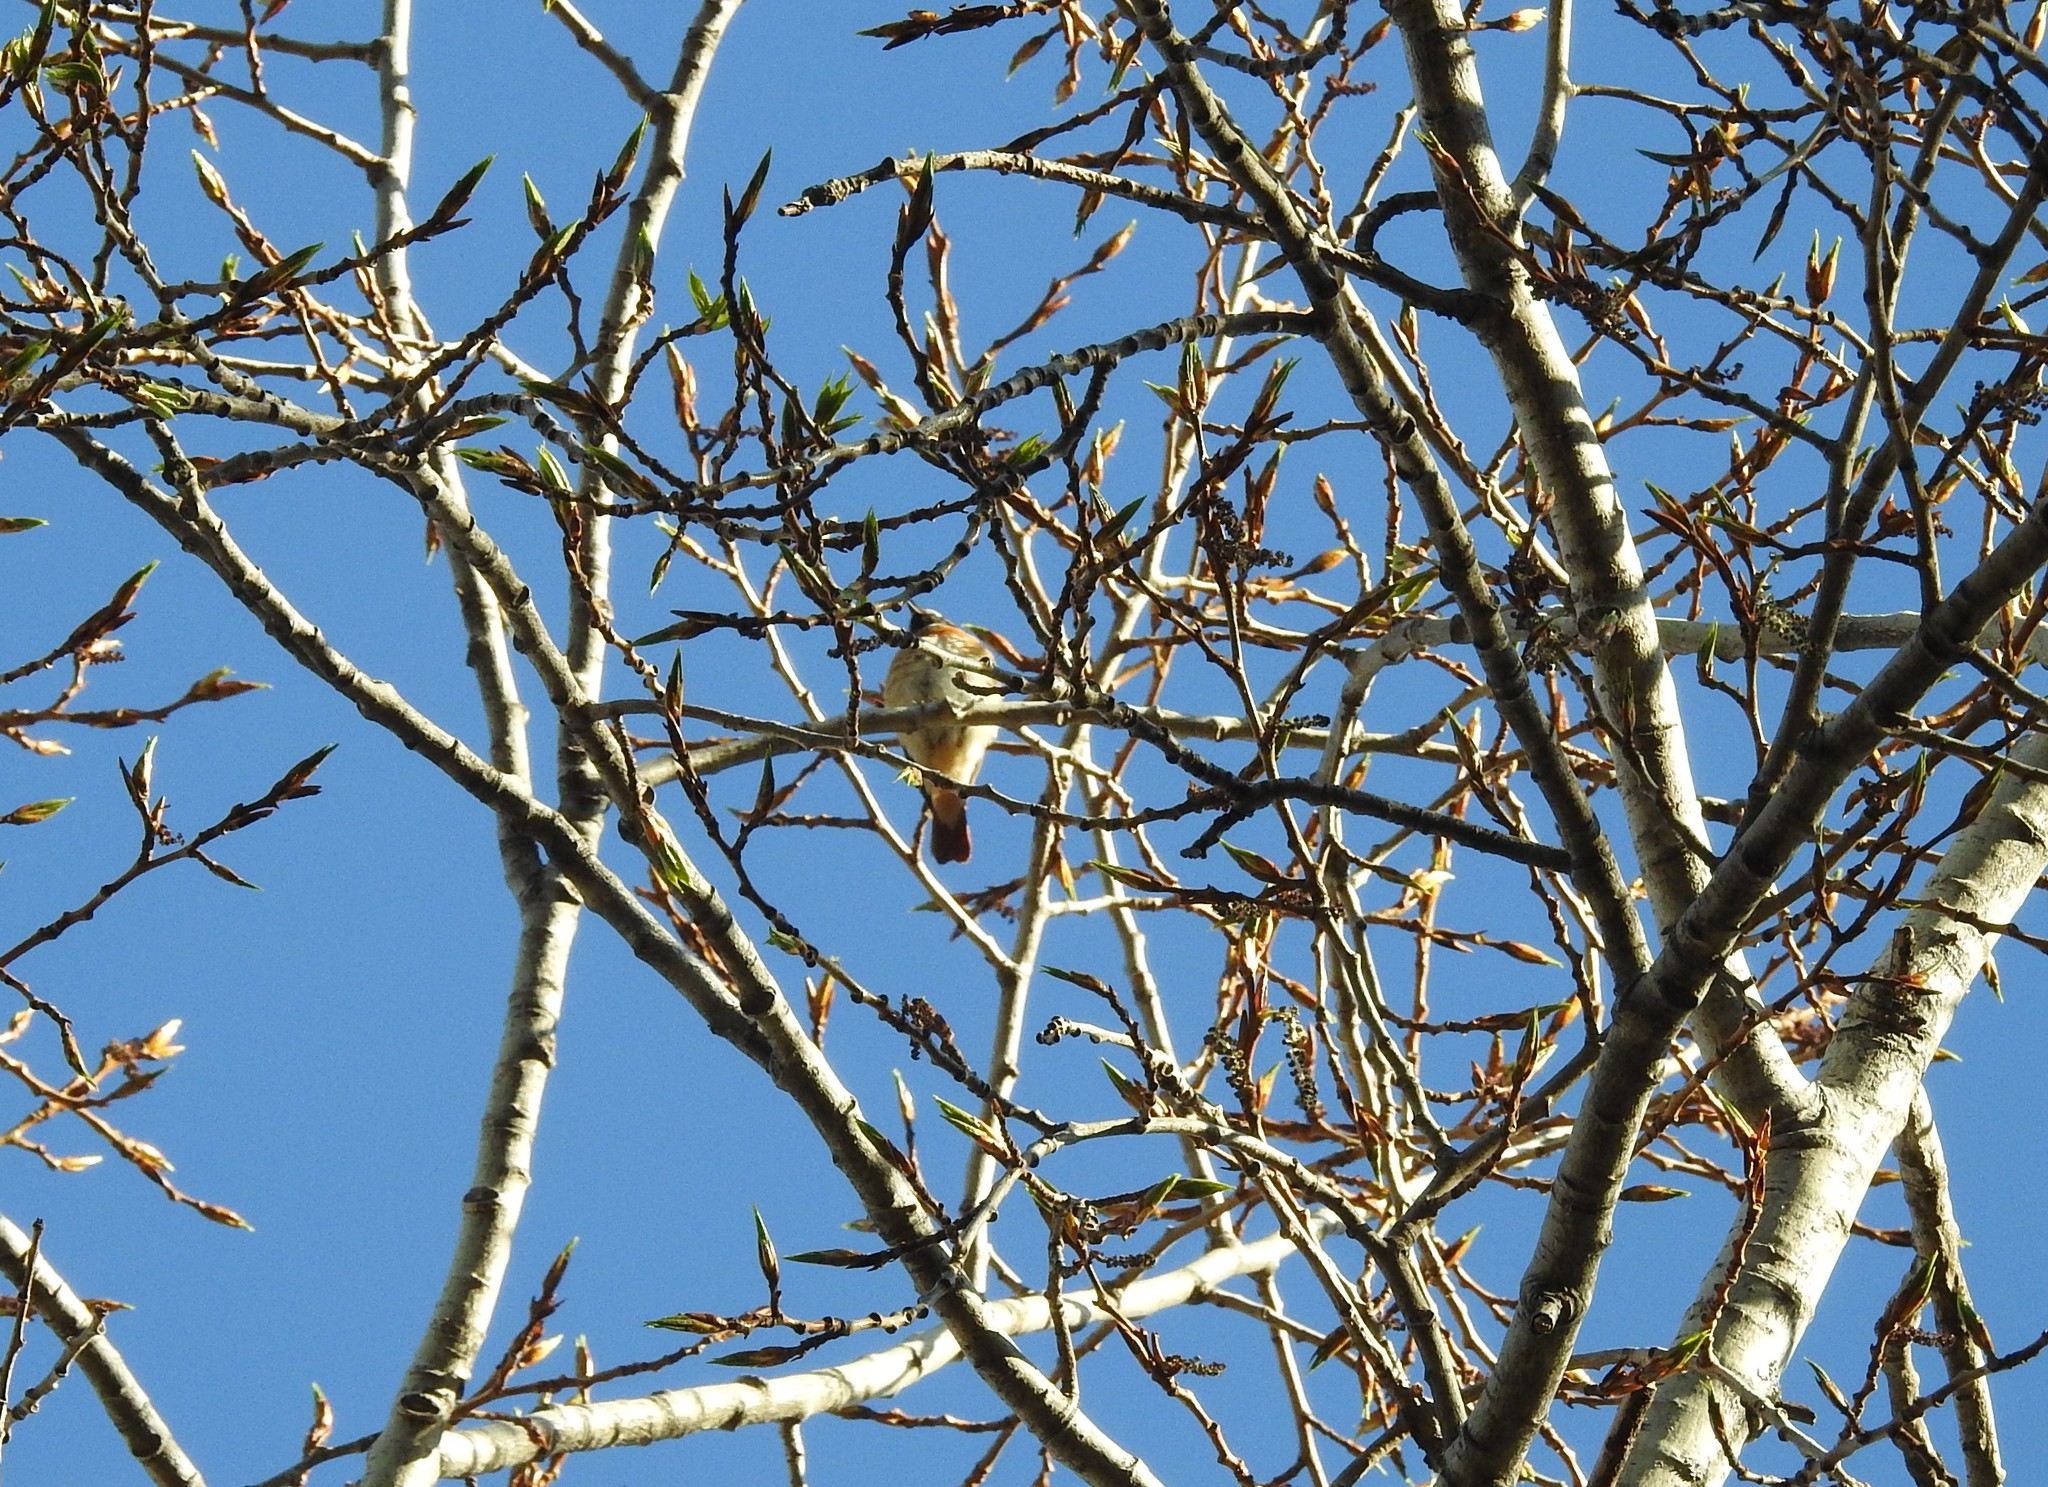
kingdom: Animalia
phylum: Chordata
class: Aves
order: Passeriformes
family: Muscicapidae
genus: Phoenicurus
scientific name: Phoenicurus phoenicurus
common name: Common redstart
